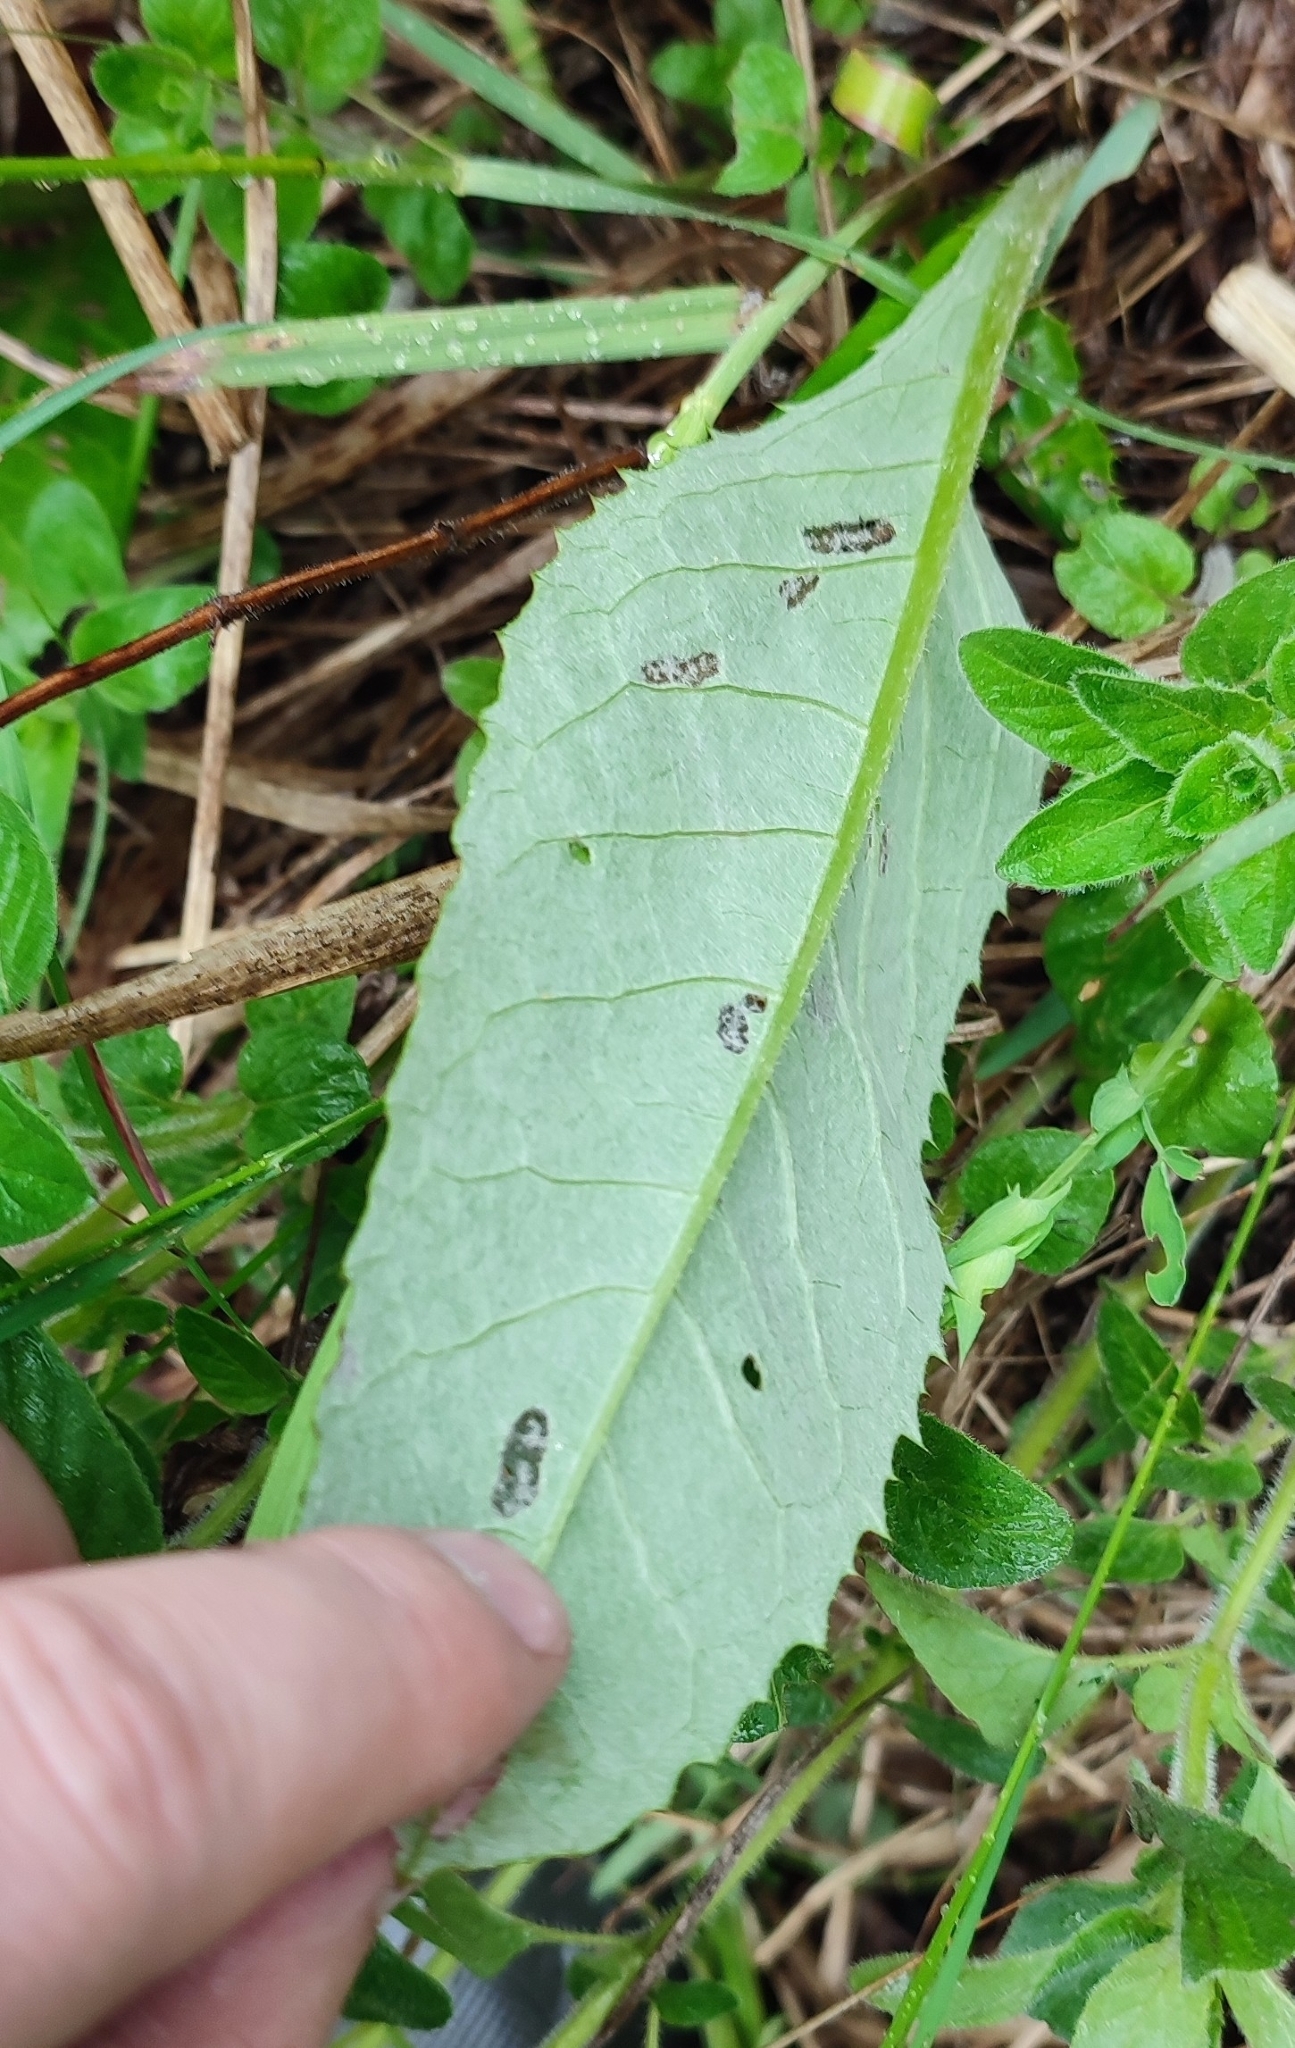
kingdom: Plantae
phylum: Tracheophyta
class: Magnoliopsida
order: Asterales
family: Asteraceae
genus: Cirsium
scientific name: Cirsium heterophyllum
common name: Melancholy thistle
